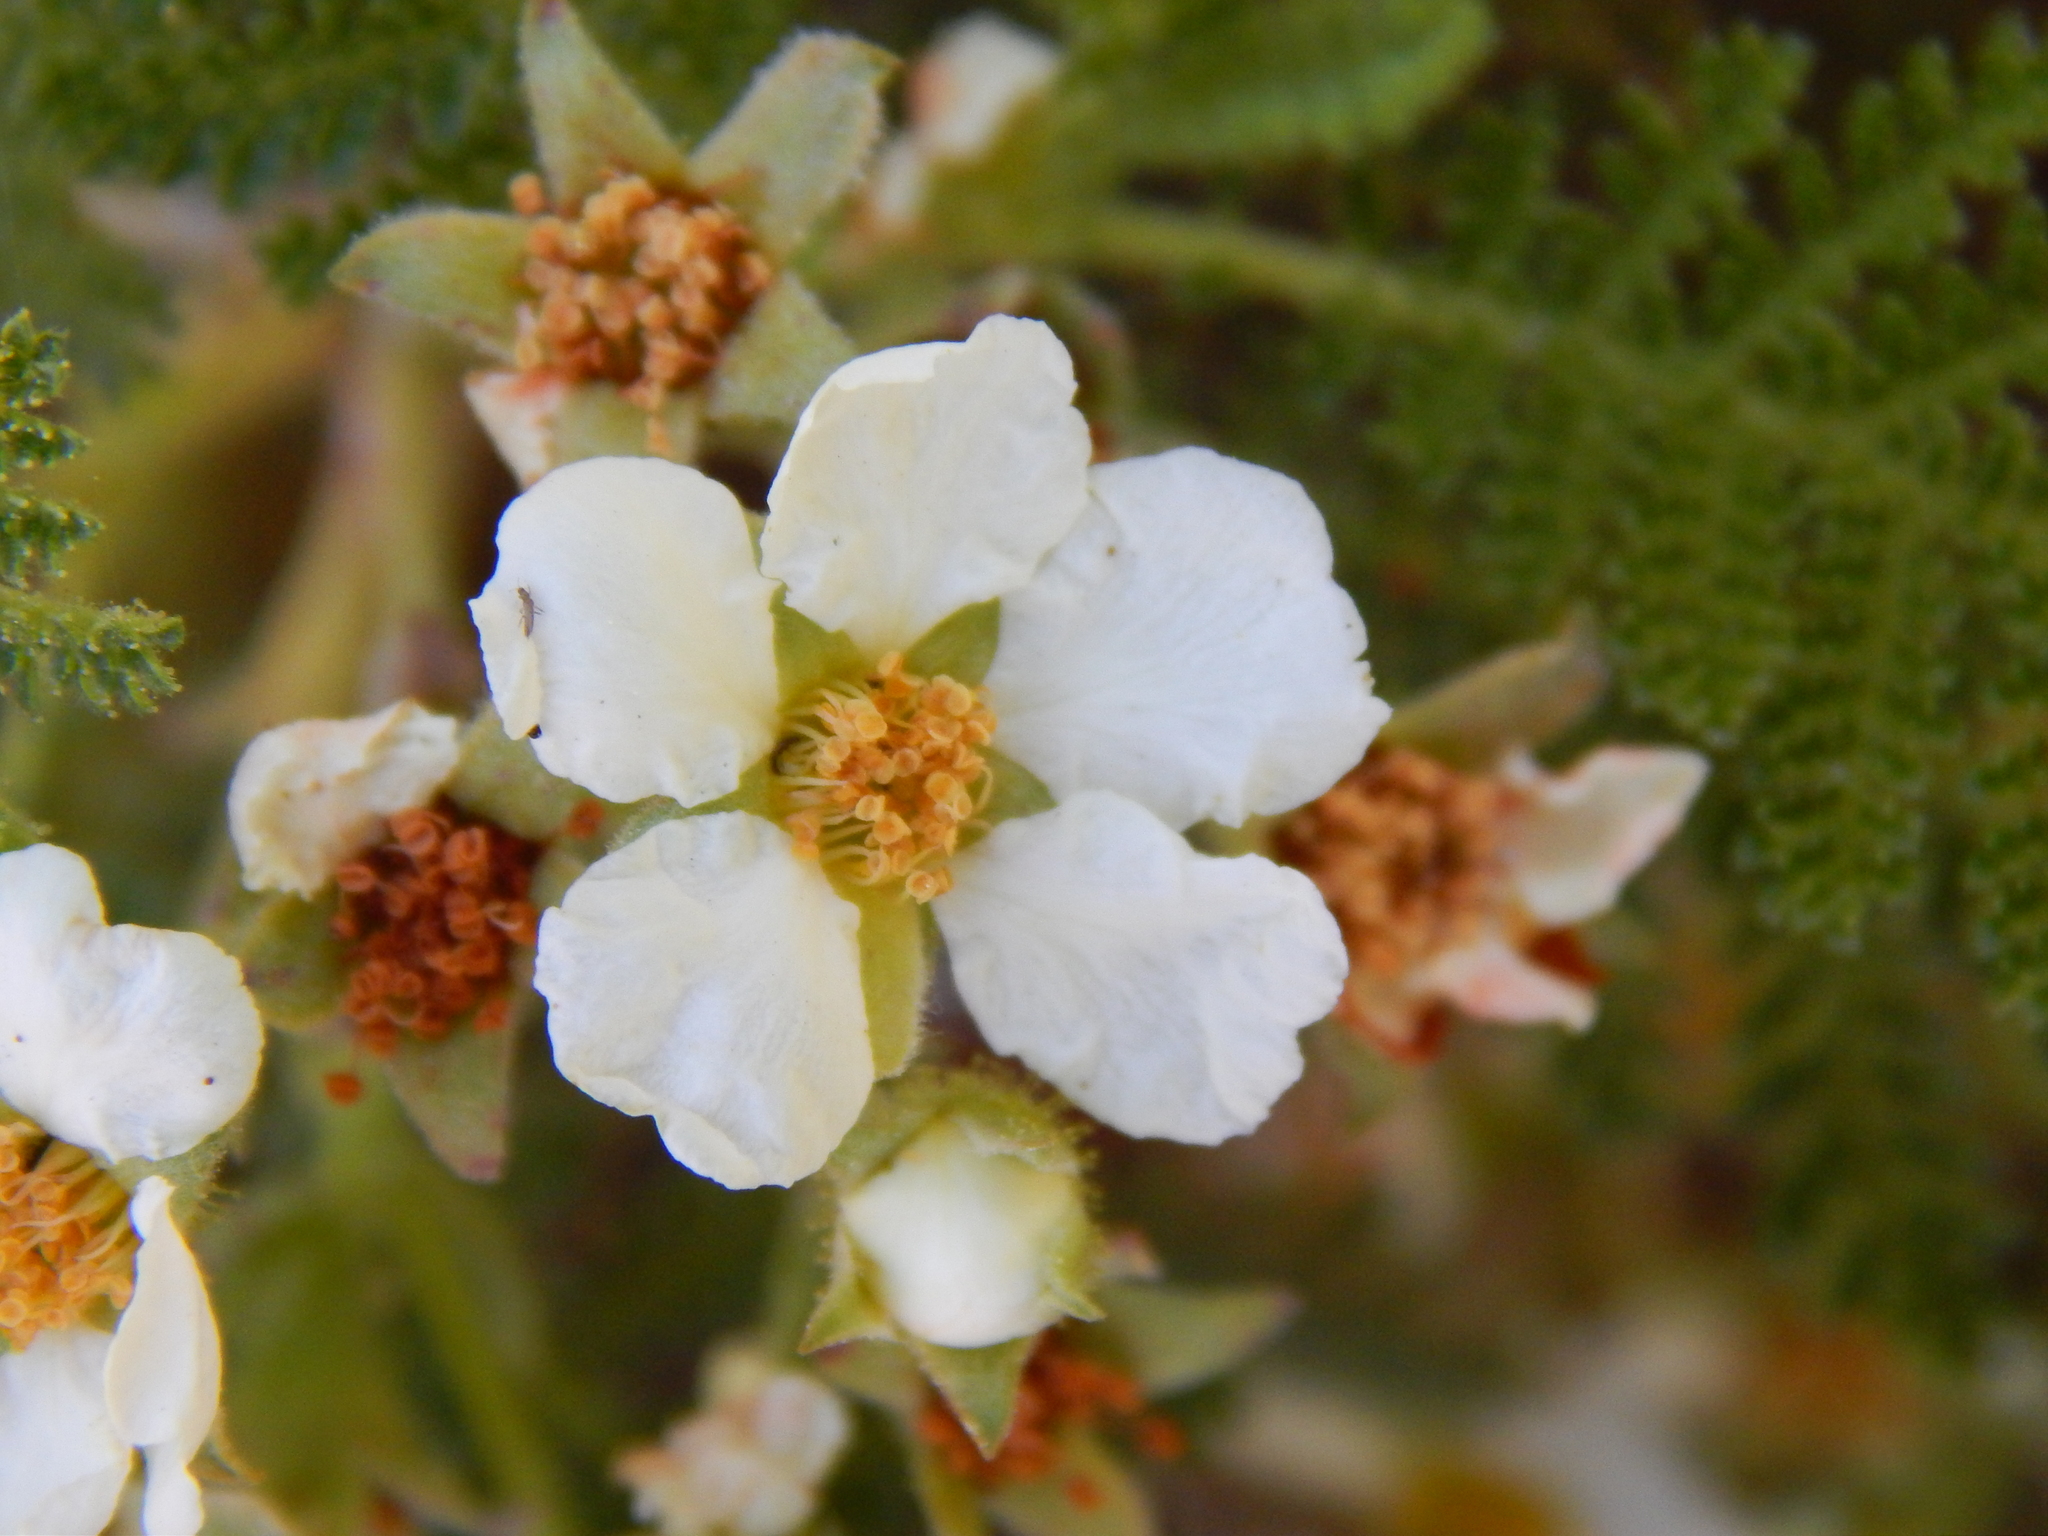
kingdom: Plantae
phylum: Tracheophyta
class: Magnoliopsida
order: Rosales
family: Rosaceae
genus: Chamaebatia
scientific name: Chamaebatia foliolosa
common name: Mountain misery
